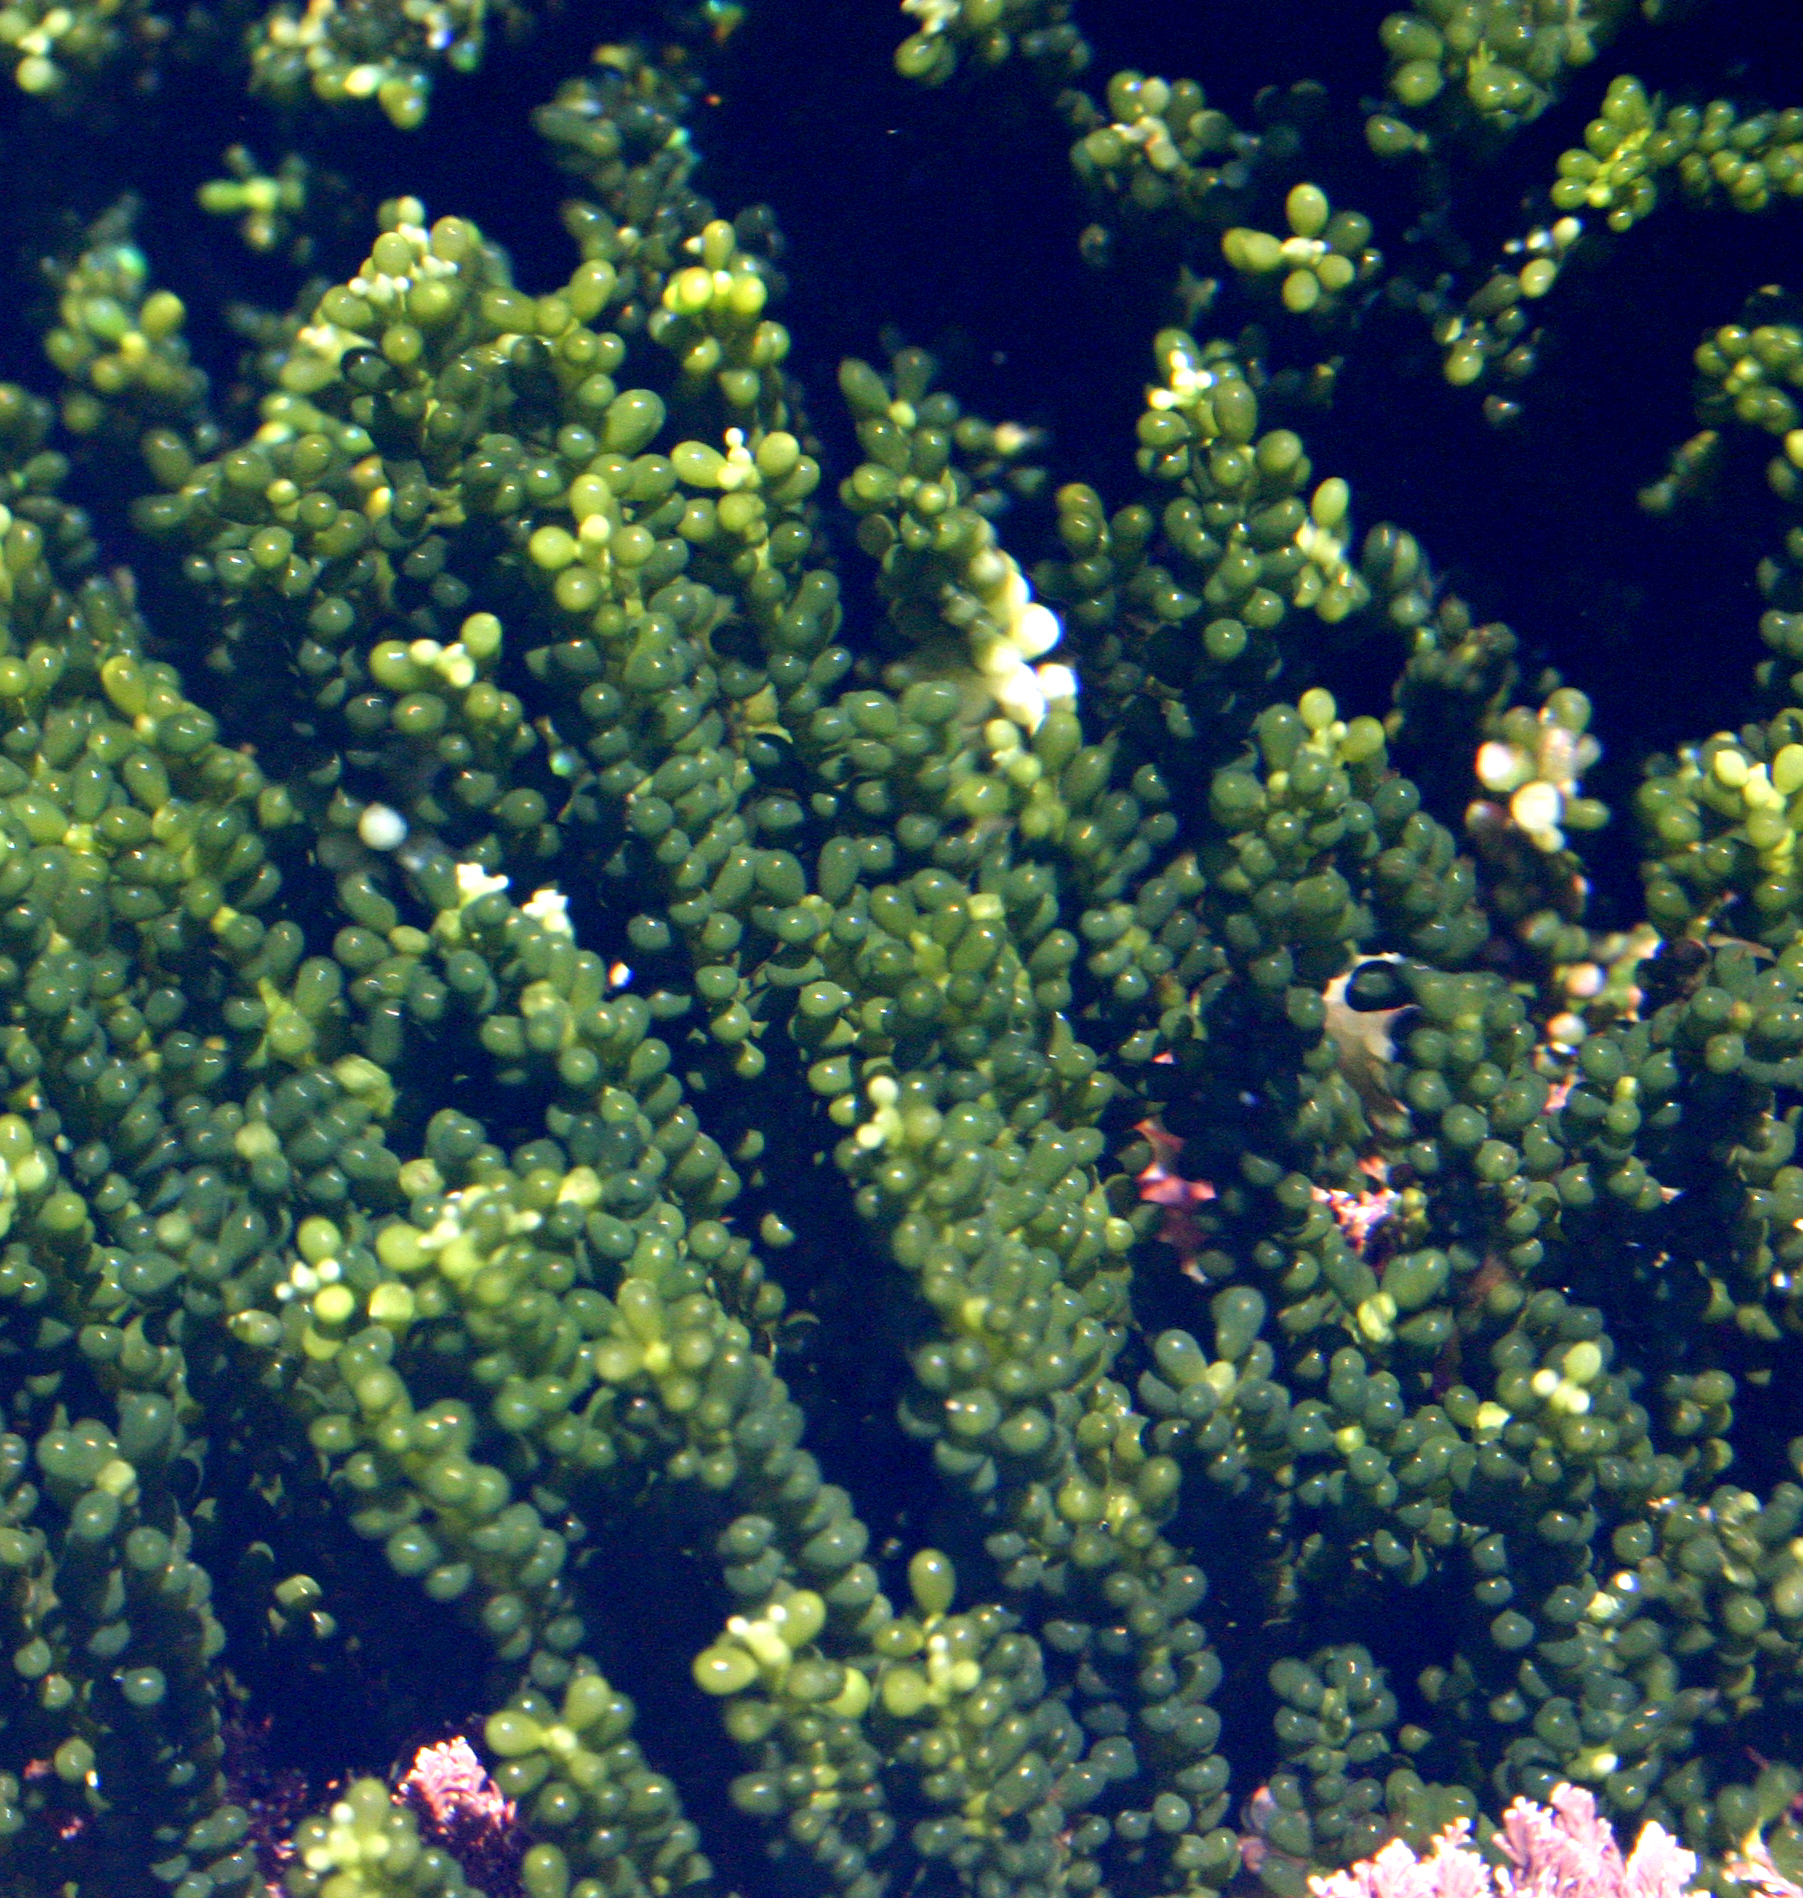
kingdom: Plantae
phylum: Chlorophyta
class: Ulvophyceae
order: Bryopsidales
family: Caulerpaceae
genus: Caulerpa
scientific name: Caulerpa geminata
